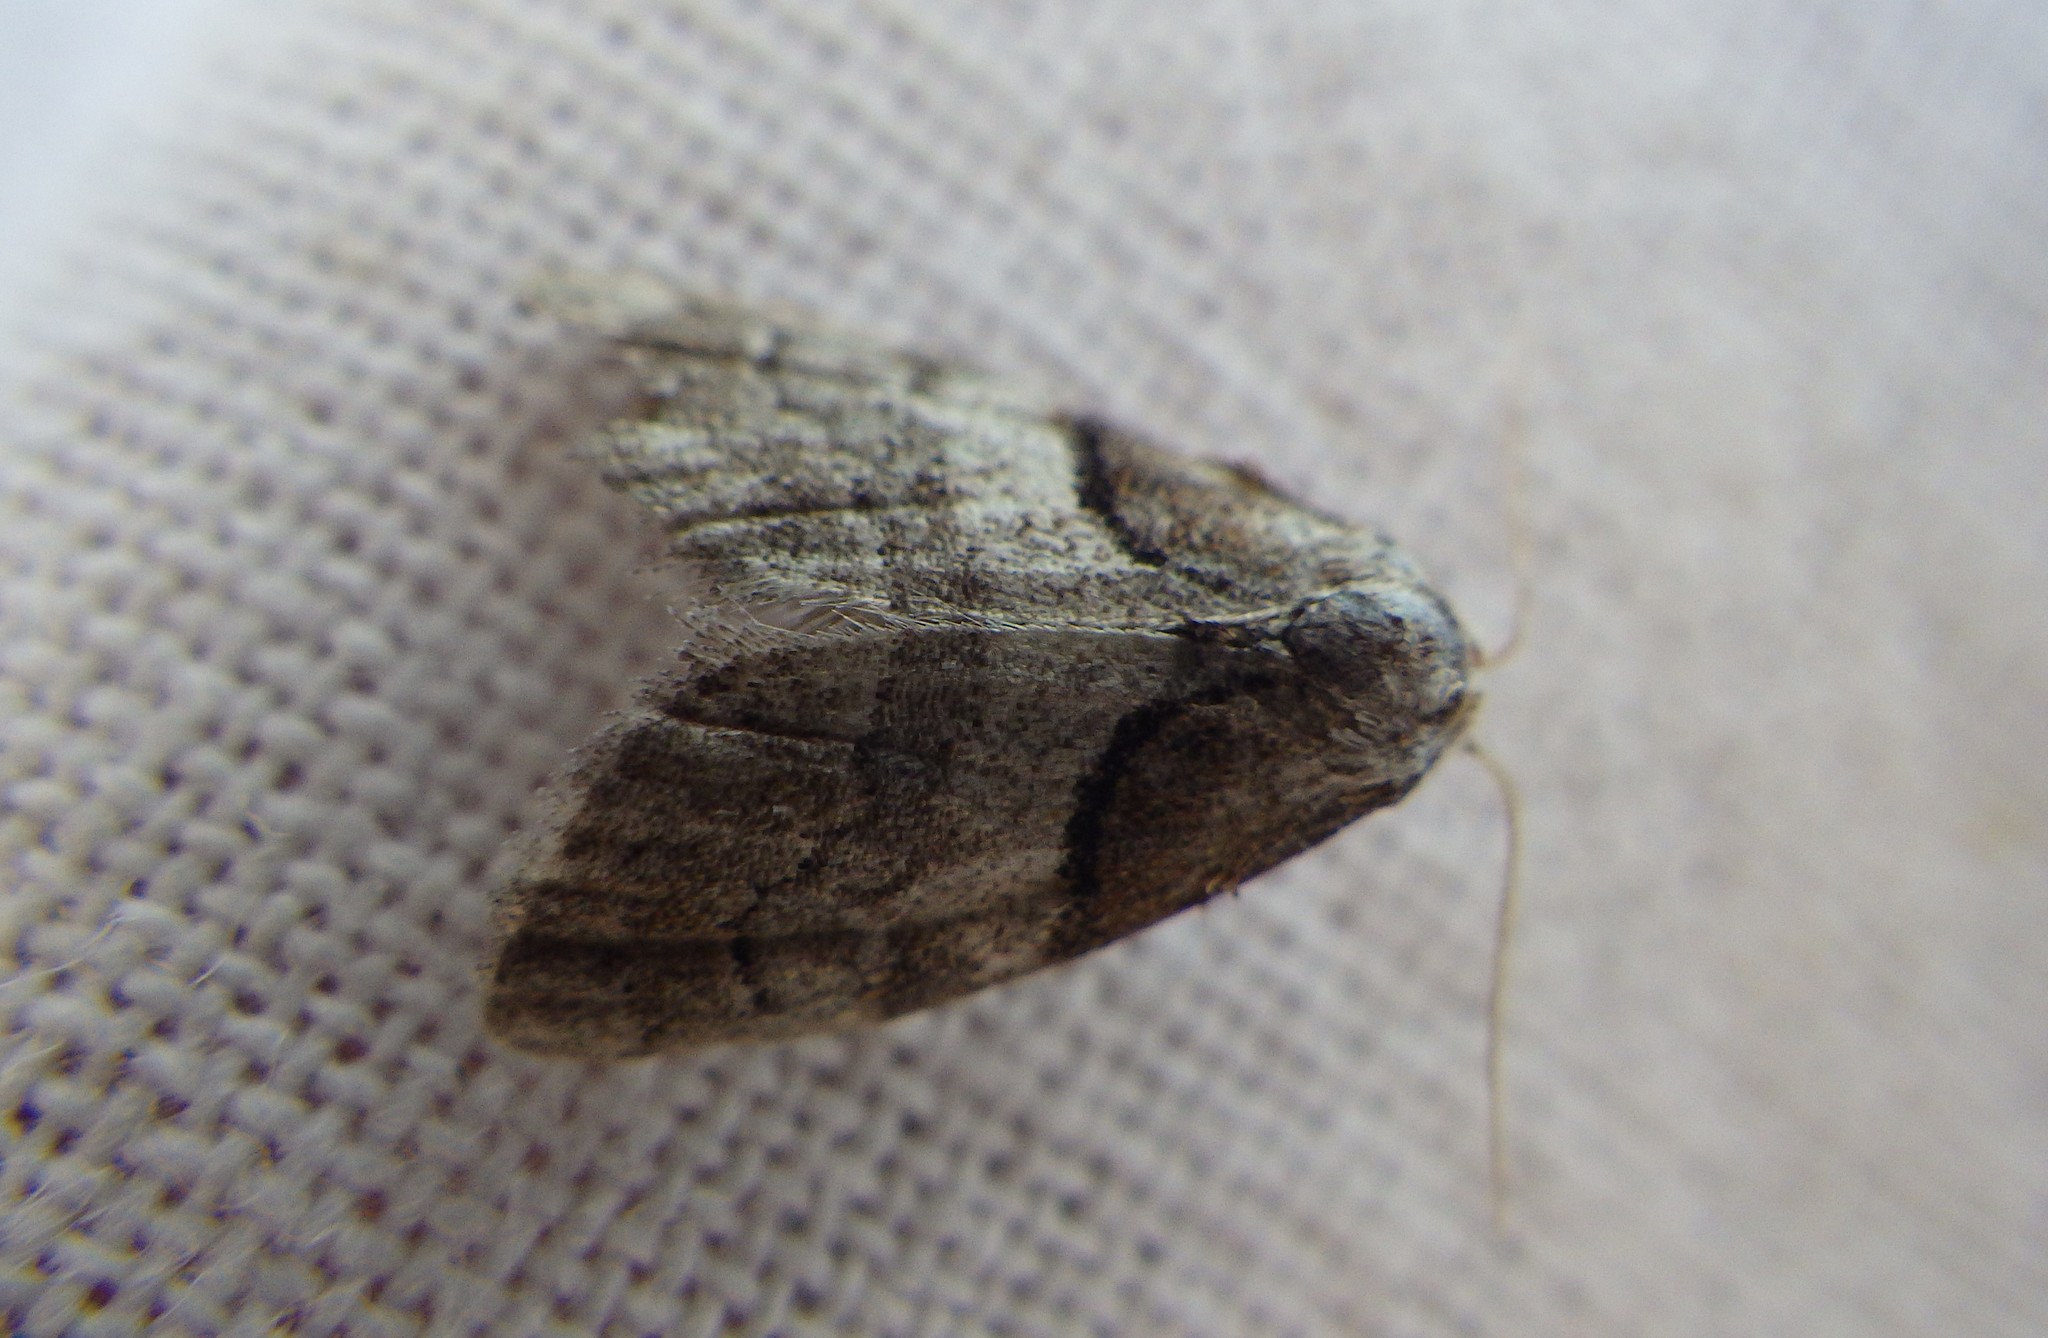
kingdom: Animalia
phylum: Arthropoda
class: Insecta
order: Lepidoptera
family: Nolidae
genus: Nola
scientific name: Nola cucullatella
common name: Short-cloaked moth
